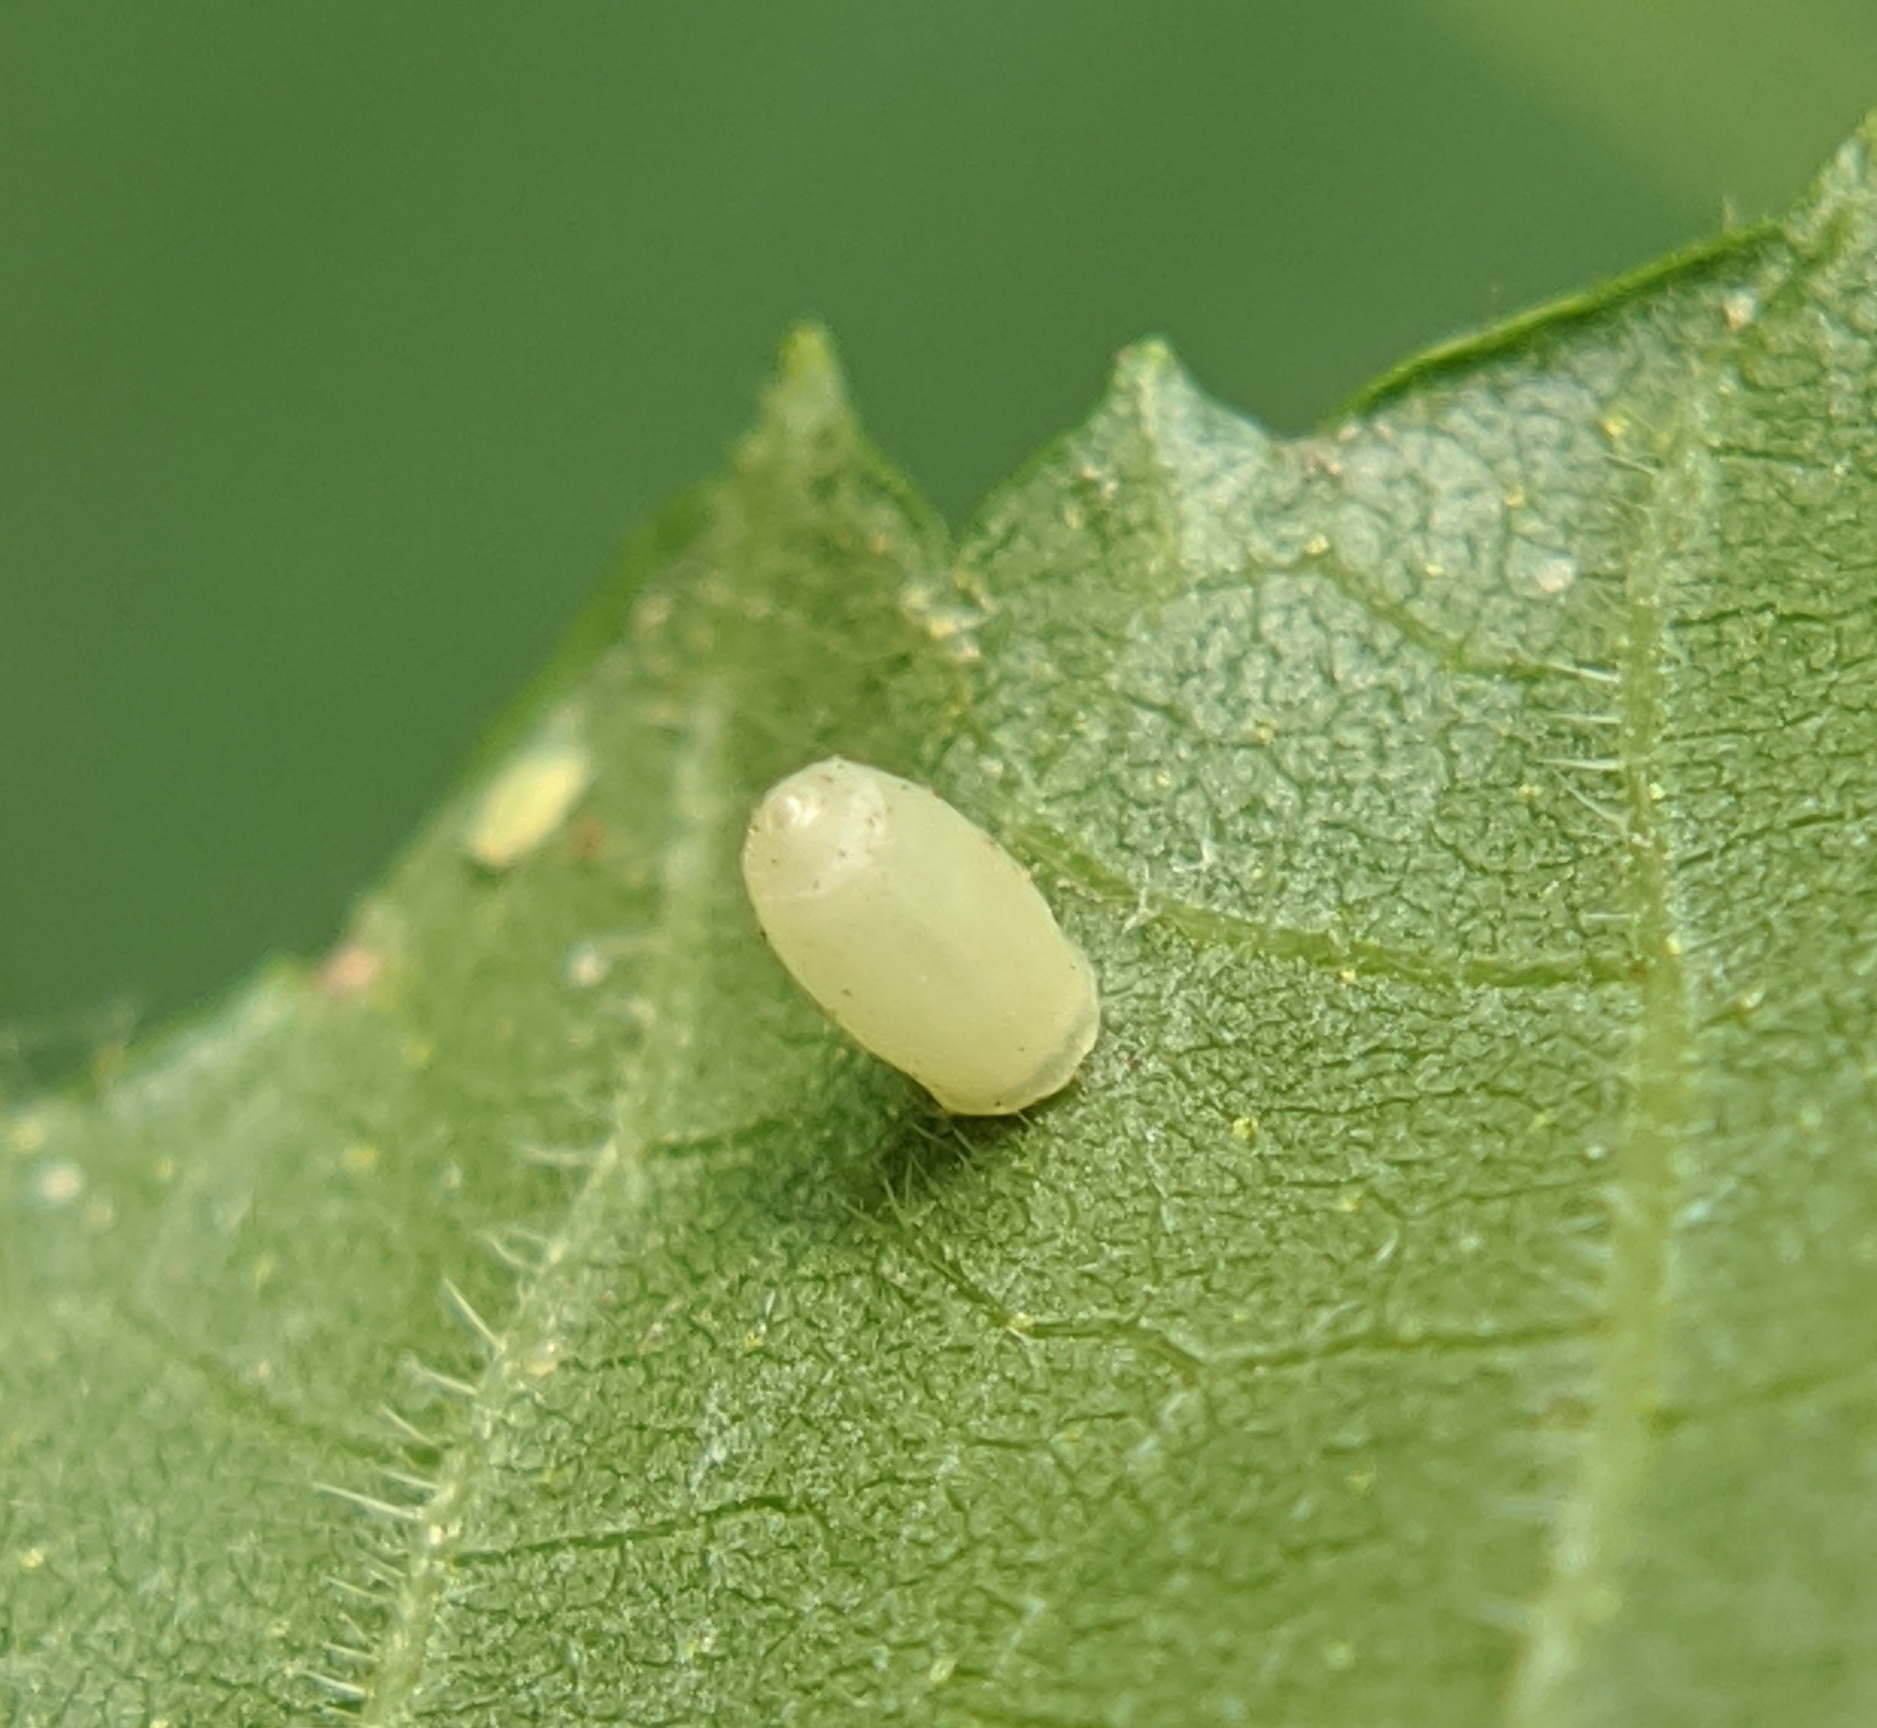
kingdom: Animalia
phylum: Arthropoda
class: Insecta
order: Diptera
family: Cecidomyiidae
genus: Caryomyia
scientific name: Caryomyia urnula
